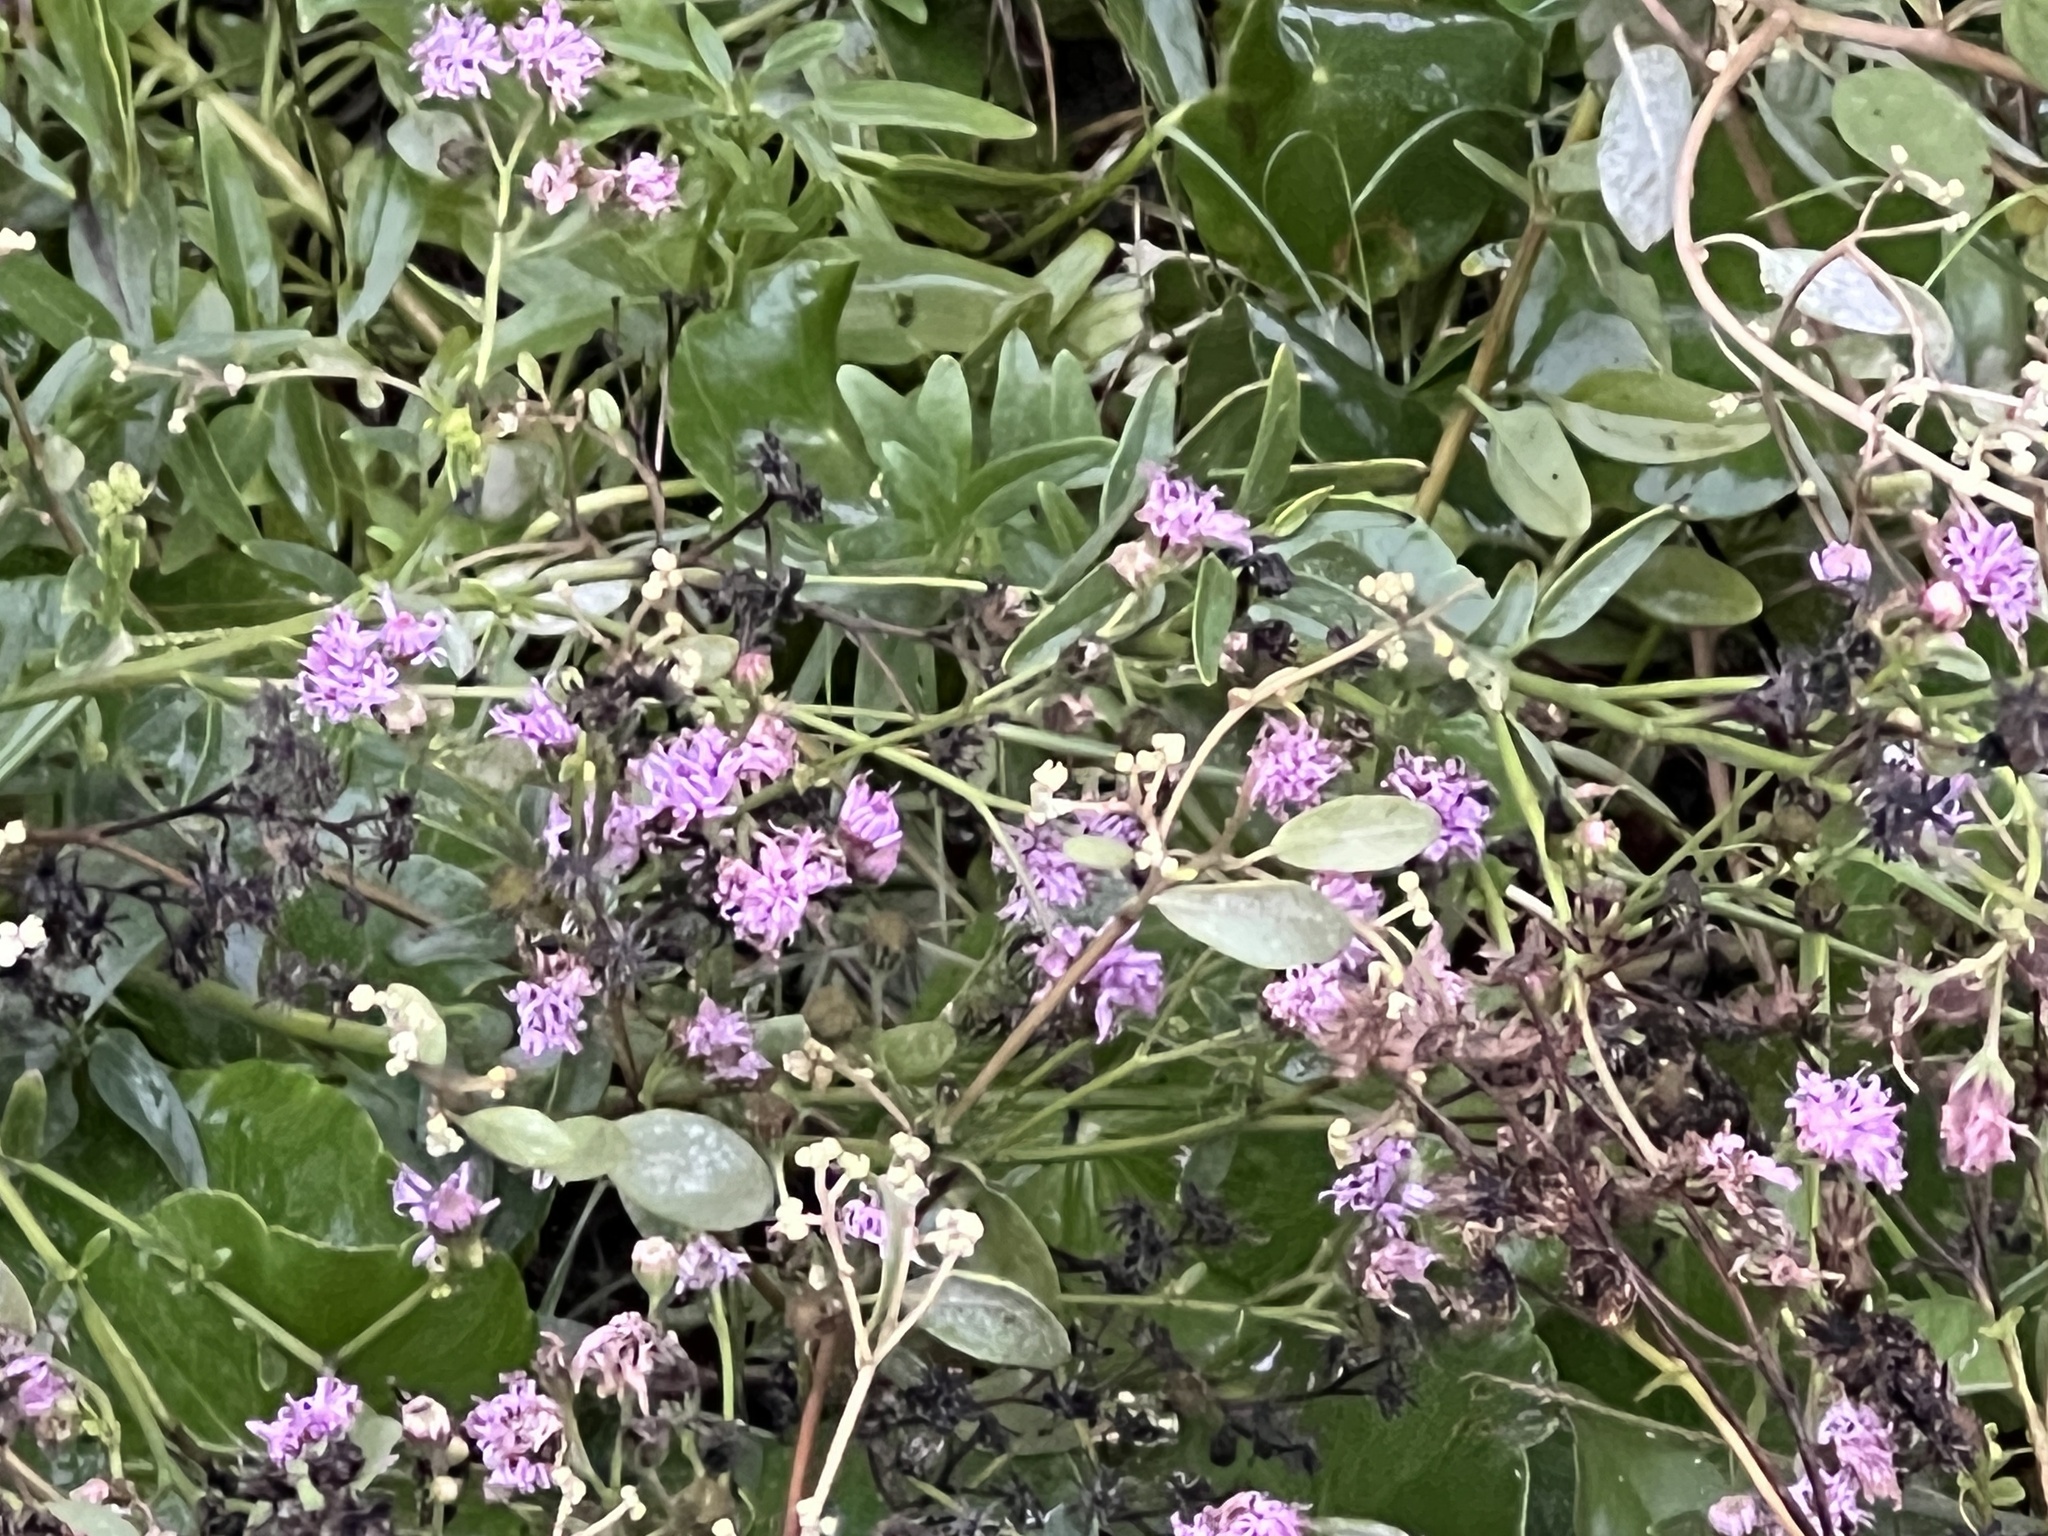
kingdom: Plantae
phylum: Tracheophyta
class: Magnoliopsida
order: Asterales
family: Asteraceae
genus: Palafoxia
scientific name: Palafoxia texana
